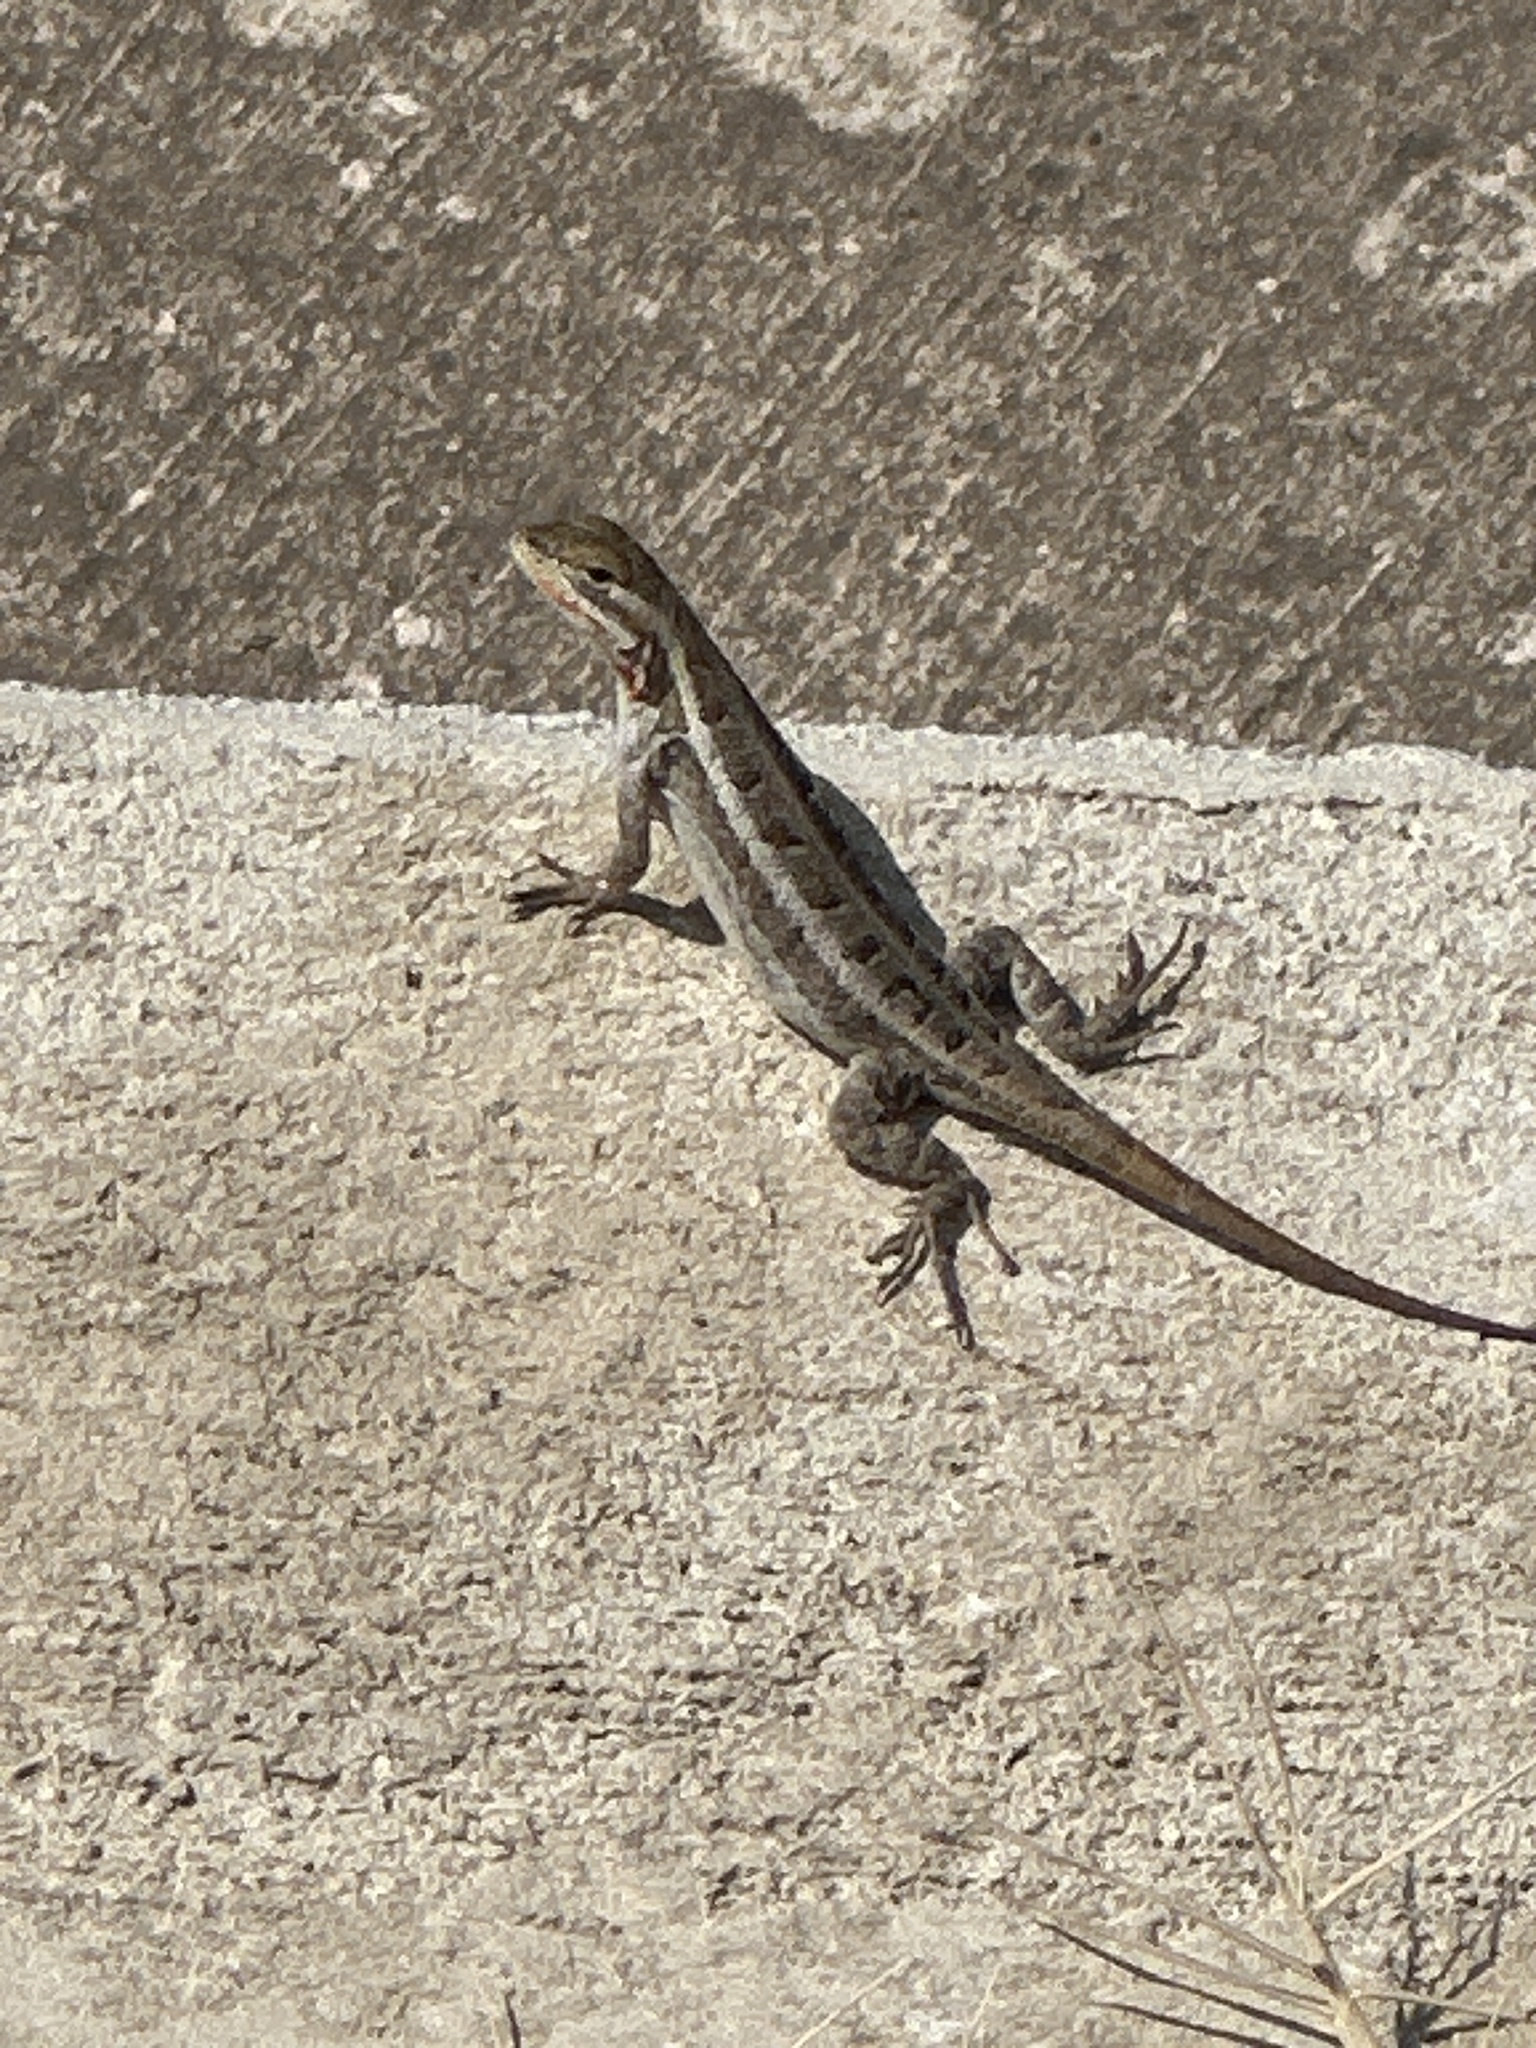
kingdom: Animalia
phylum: Chordata
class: Squamata
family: Phrynosomatidae
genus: Sceloporus
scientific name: Sceloporus variabilis
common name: Rosebelly lizard
